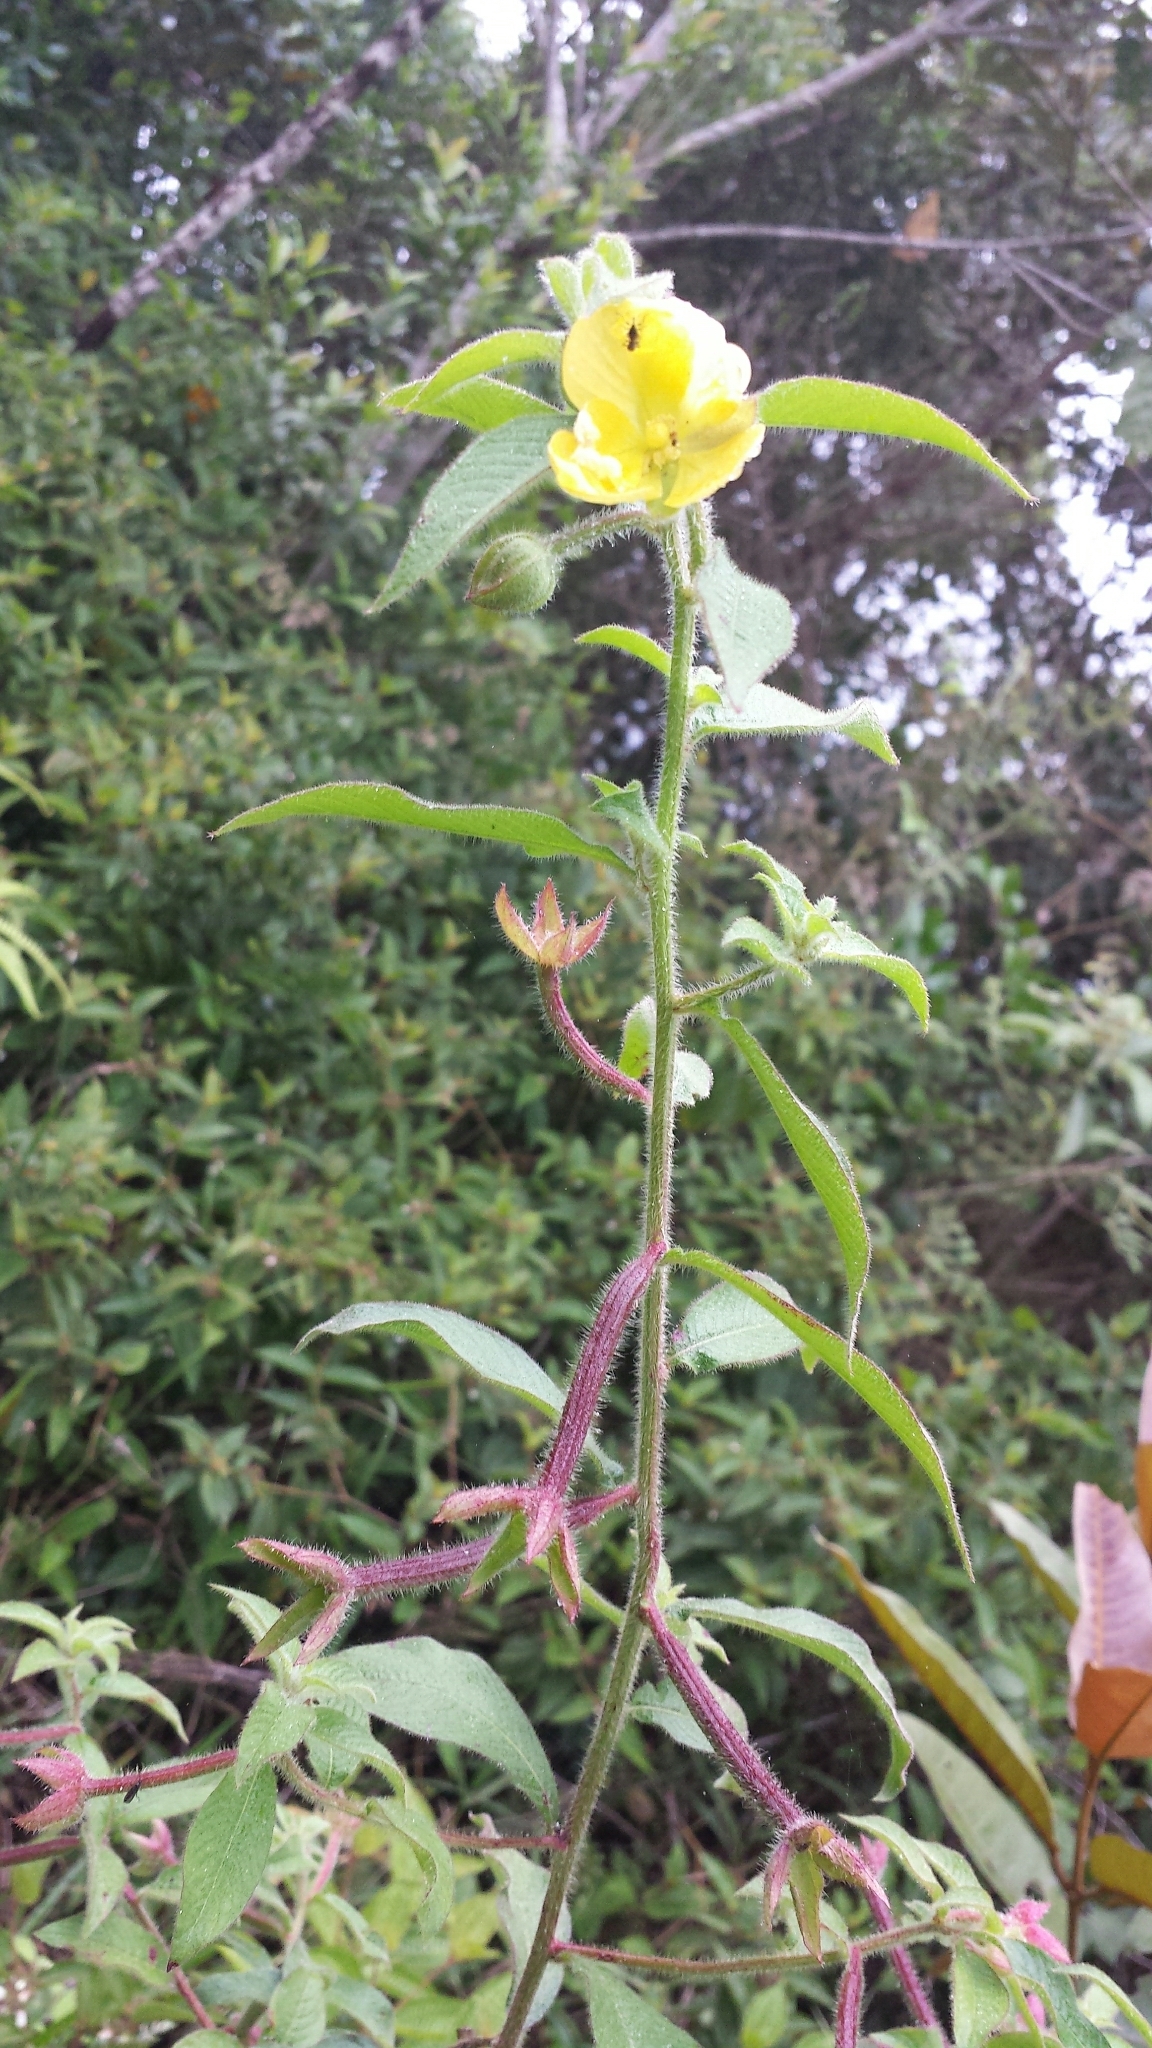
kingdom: Plantae
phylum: Tracheophyta
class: Magnoliopsida
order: Myrtales
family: Onagraceae
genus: Ludwigia
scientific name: Ludwigia octovalvis
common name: Water-primrose
